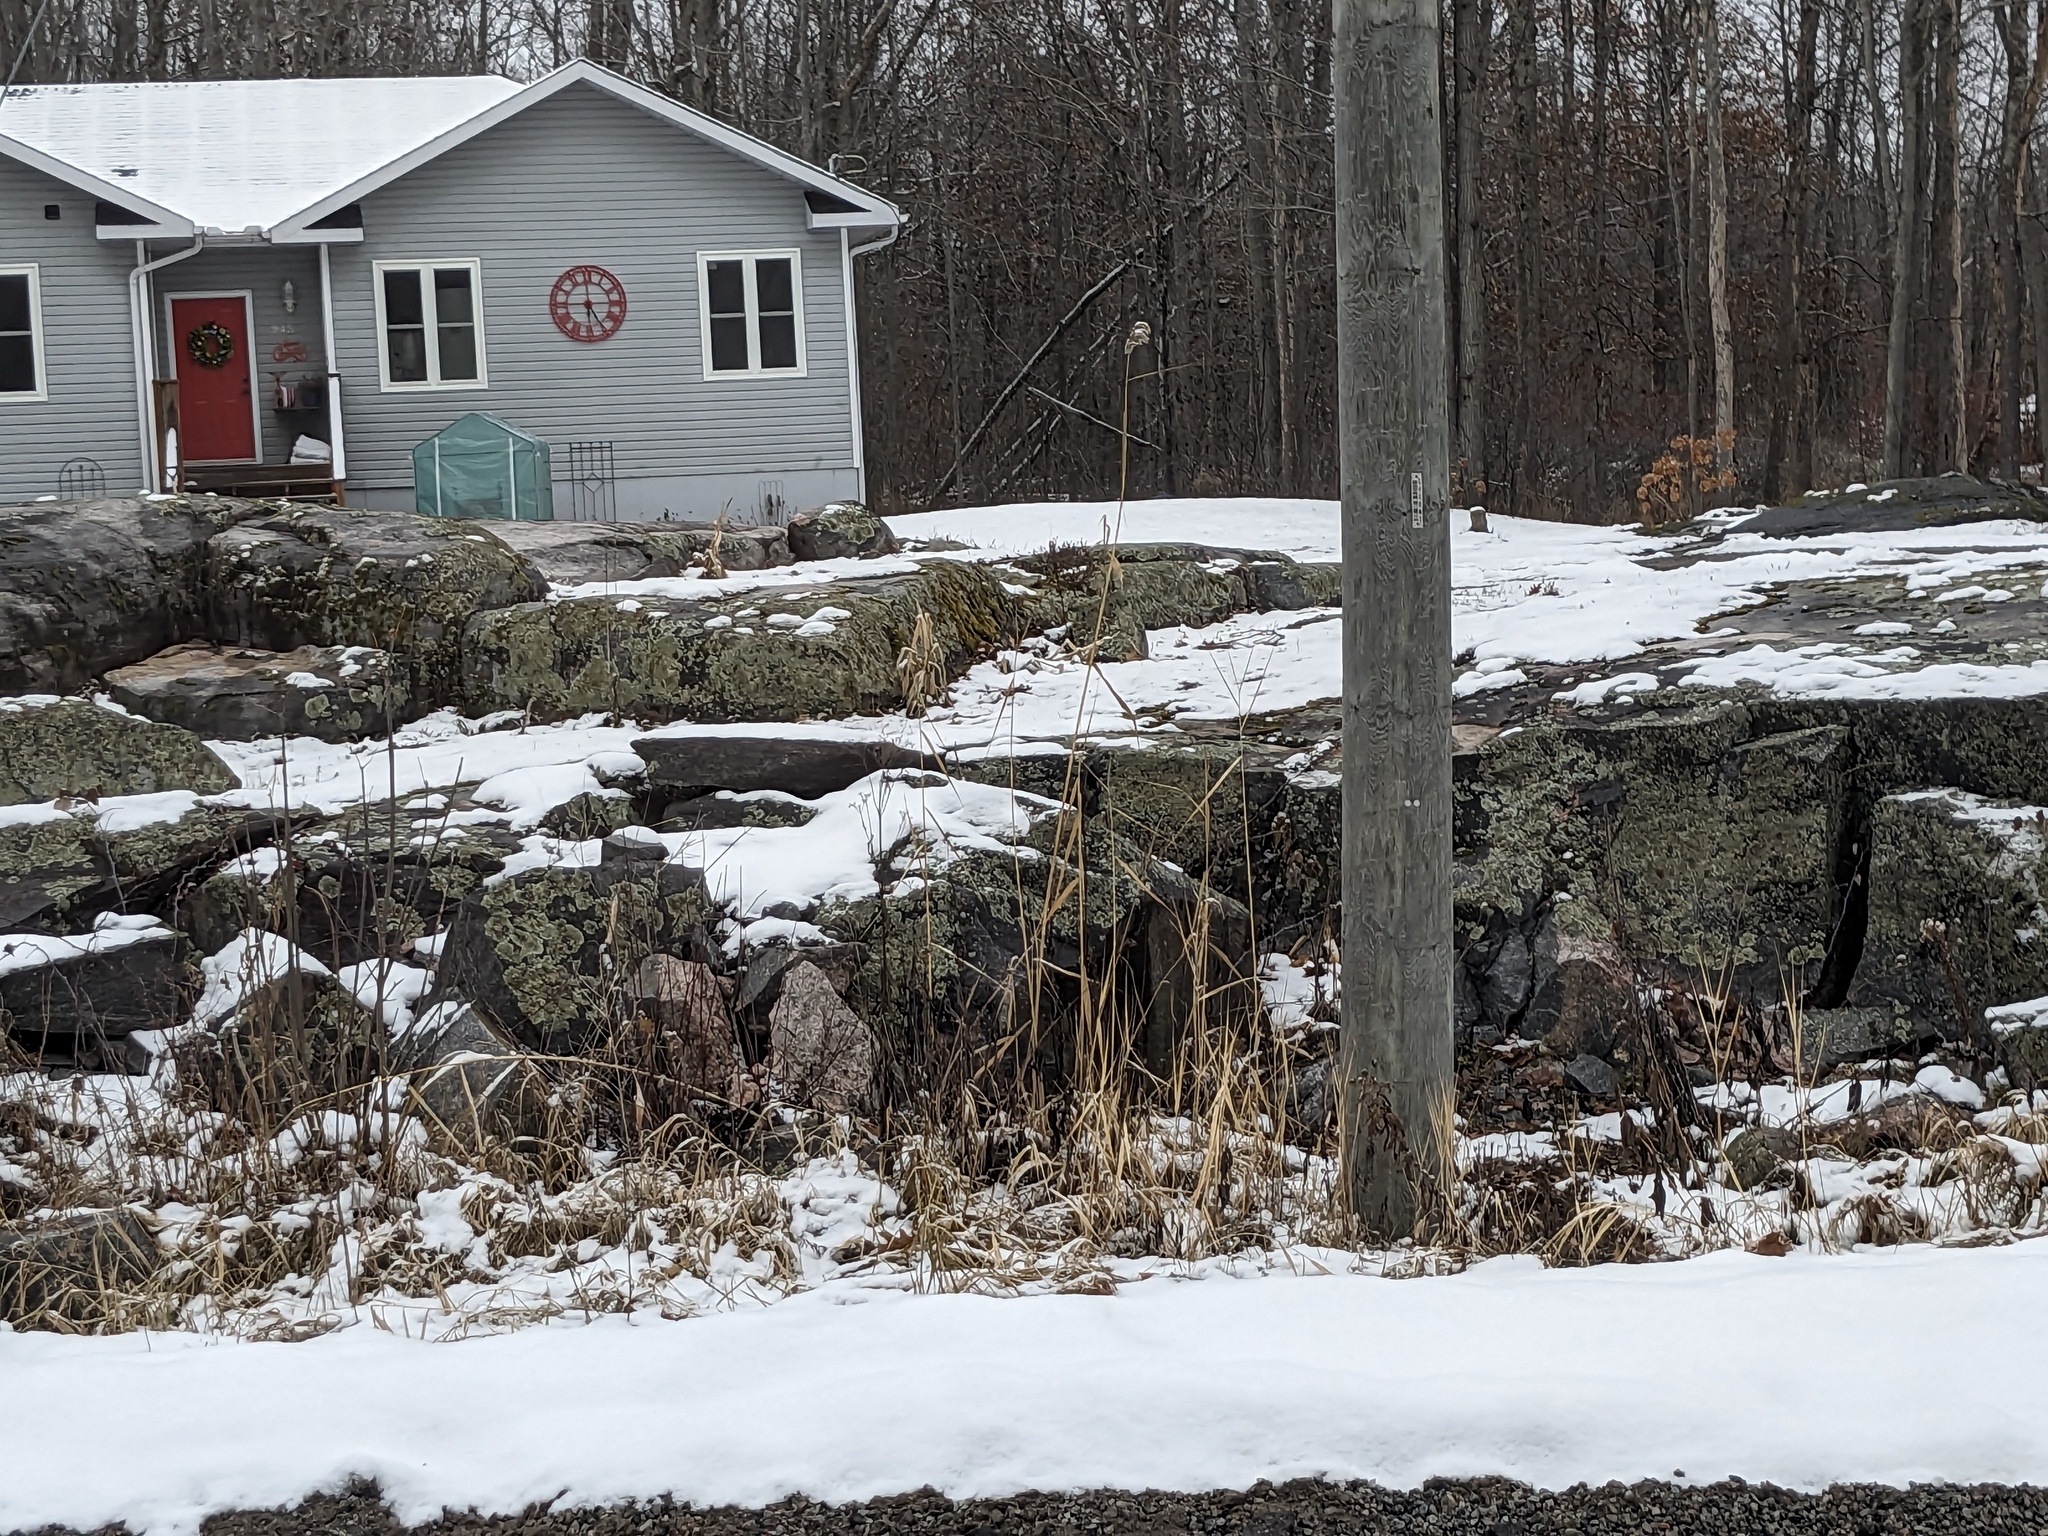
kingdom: Plantae
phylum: Tracheophyta
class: Liliopsida
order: Poales
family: Poaceae
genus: Phragmites
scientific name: Phragmites australis
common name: Common reed
